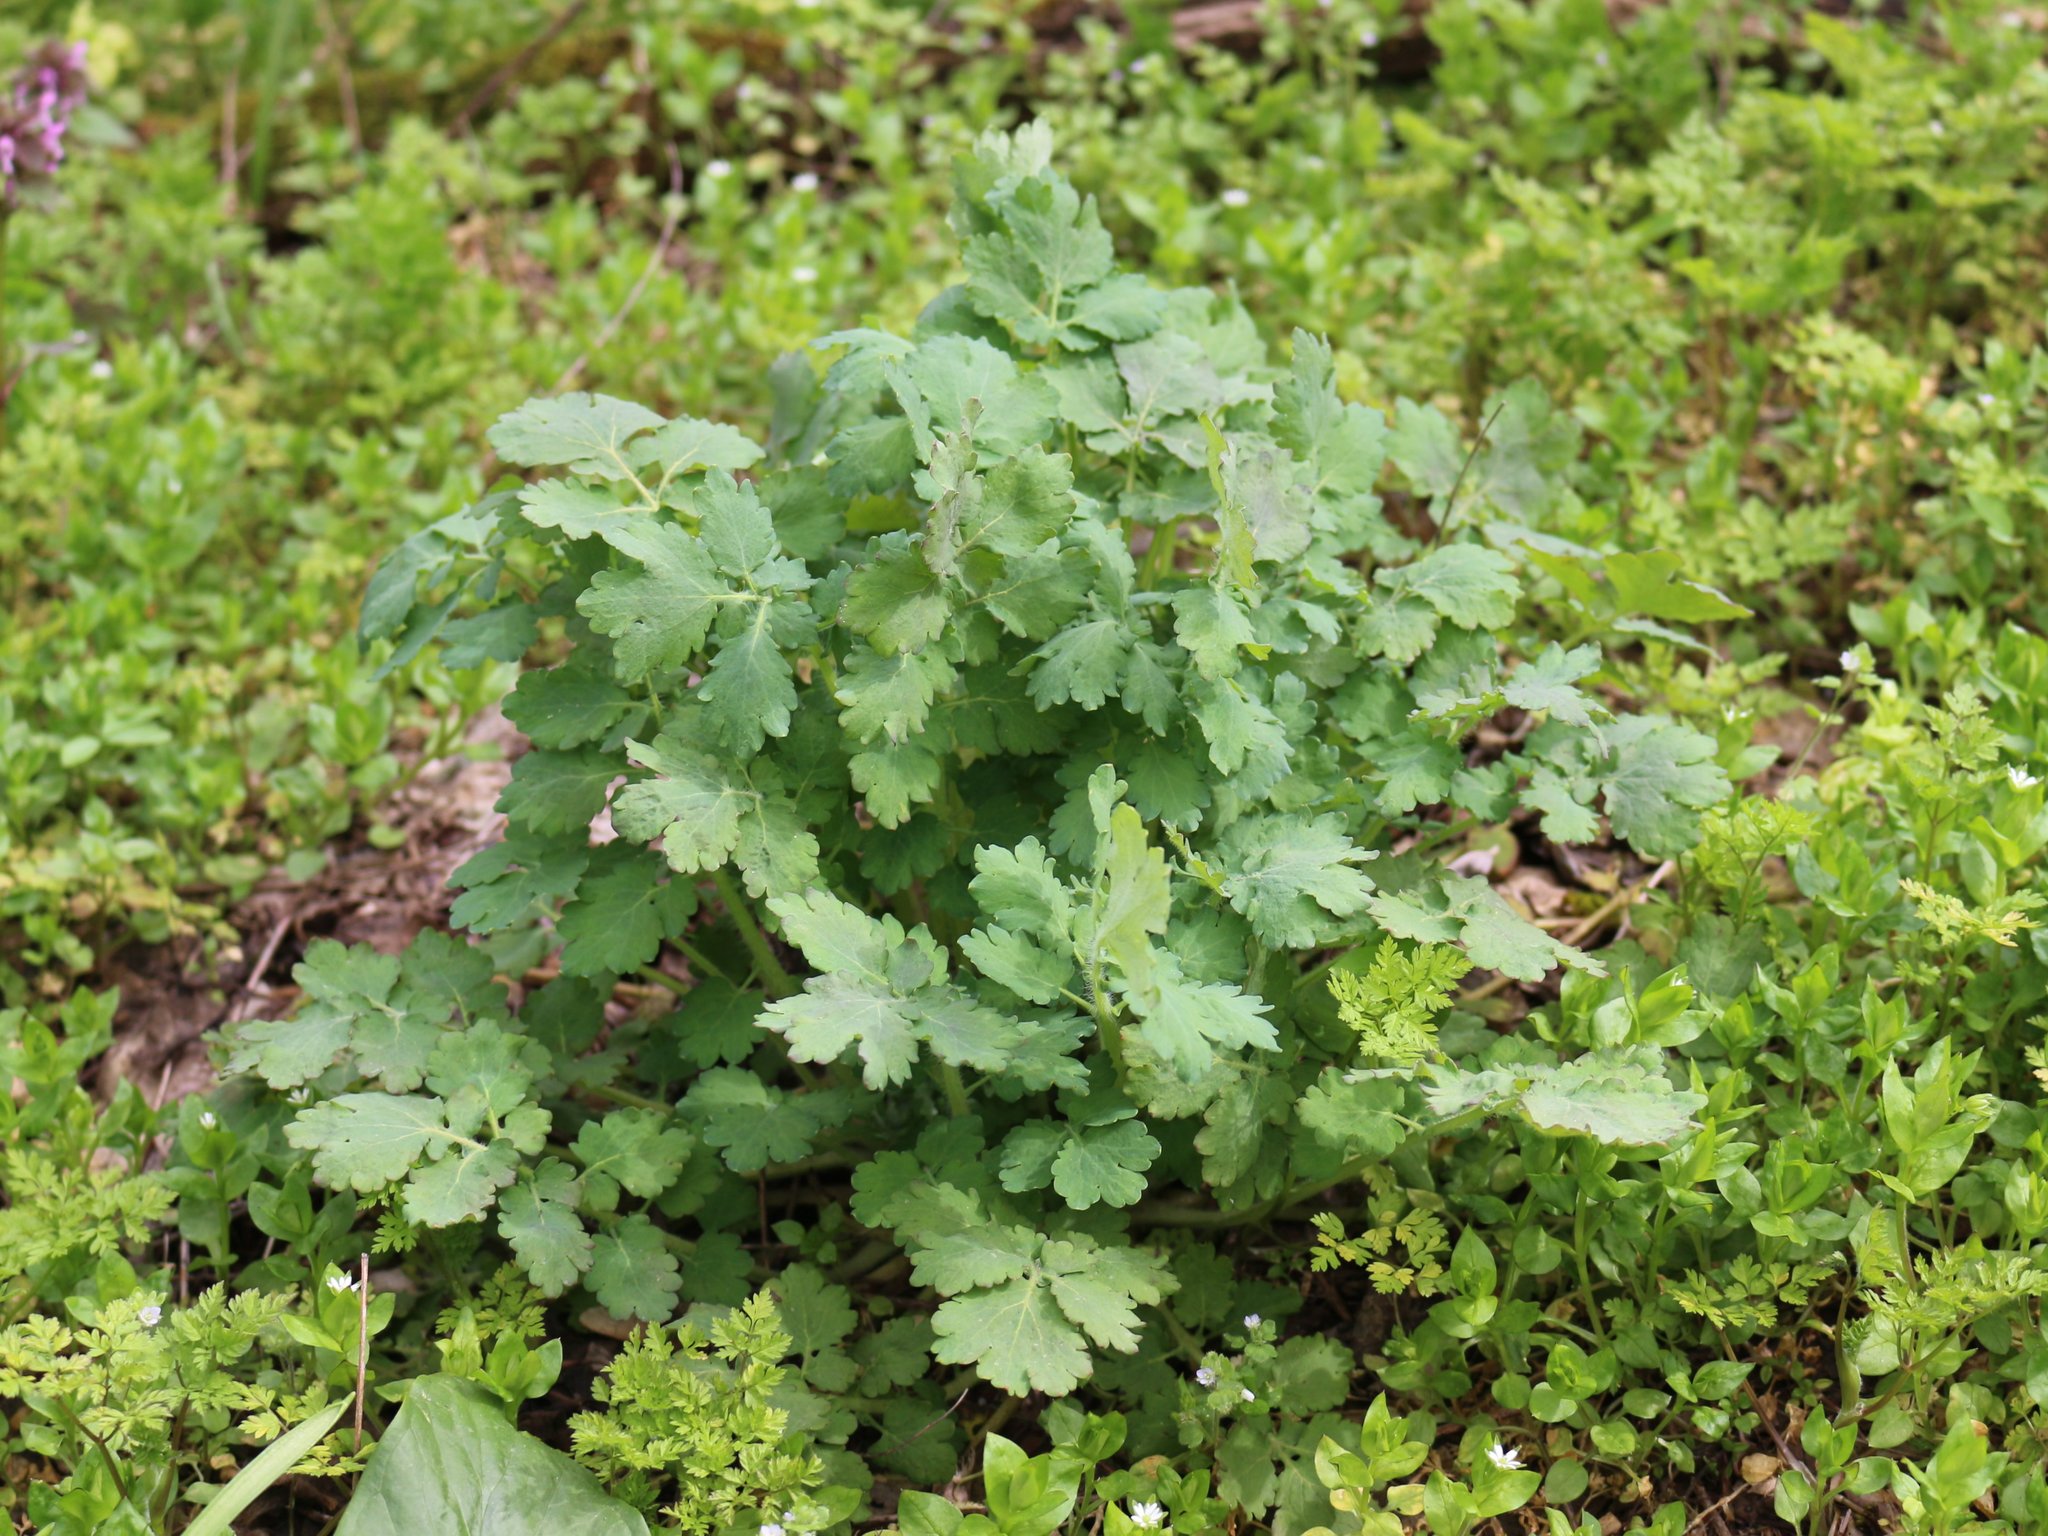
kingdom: Plantae
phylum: Tracheophyta
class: Magnoliopsida
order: Ranunculales
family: Papaveraceae
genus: Chelidonium
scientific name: Chelidonium majus
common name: Greater celandine
